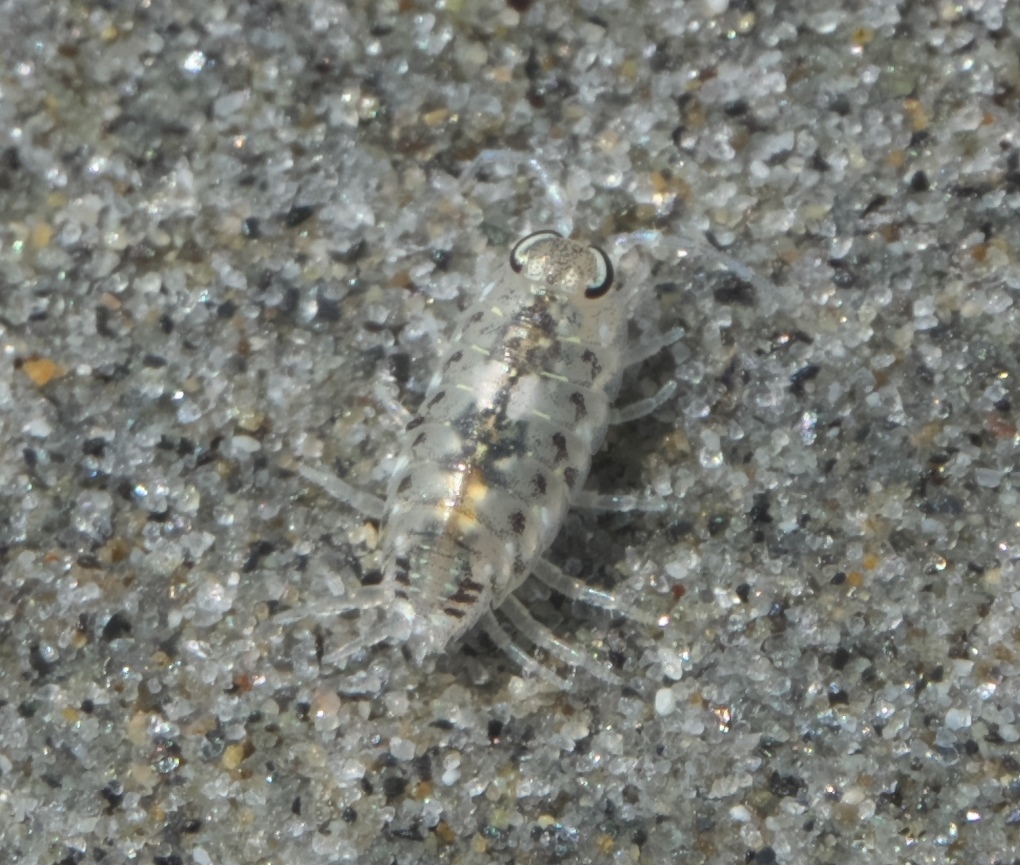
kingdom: Animalia
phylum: Arthropoda
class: Malacostraca
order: Isopoda
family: Scyphacidae
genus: Scyphax
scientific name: Scyphax ornatus
